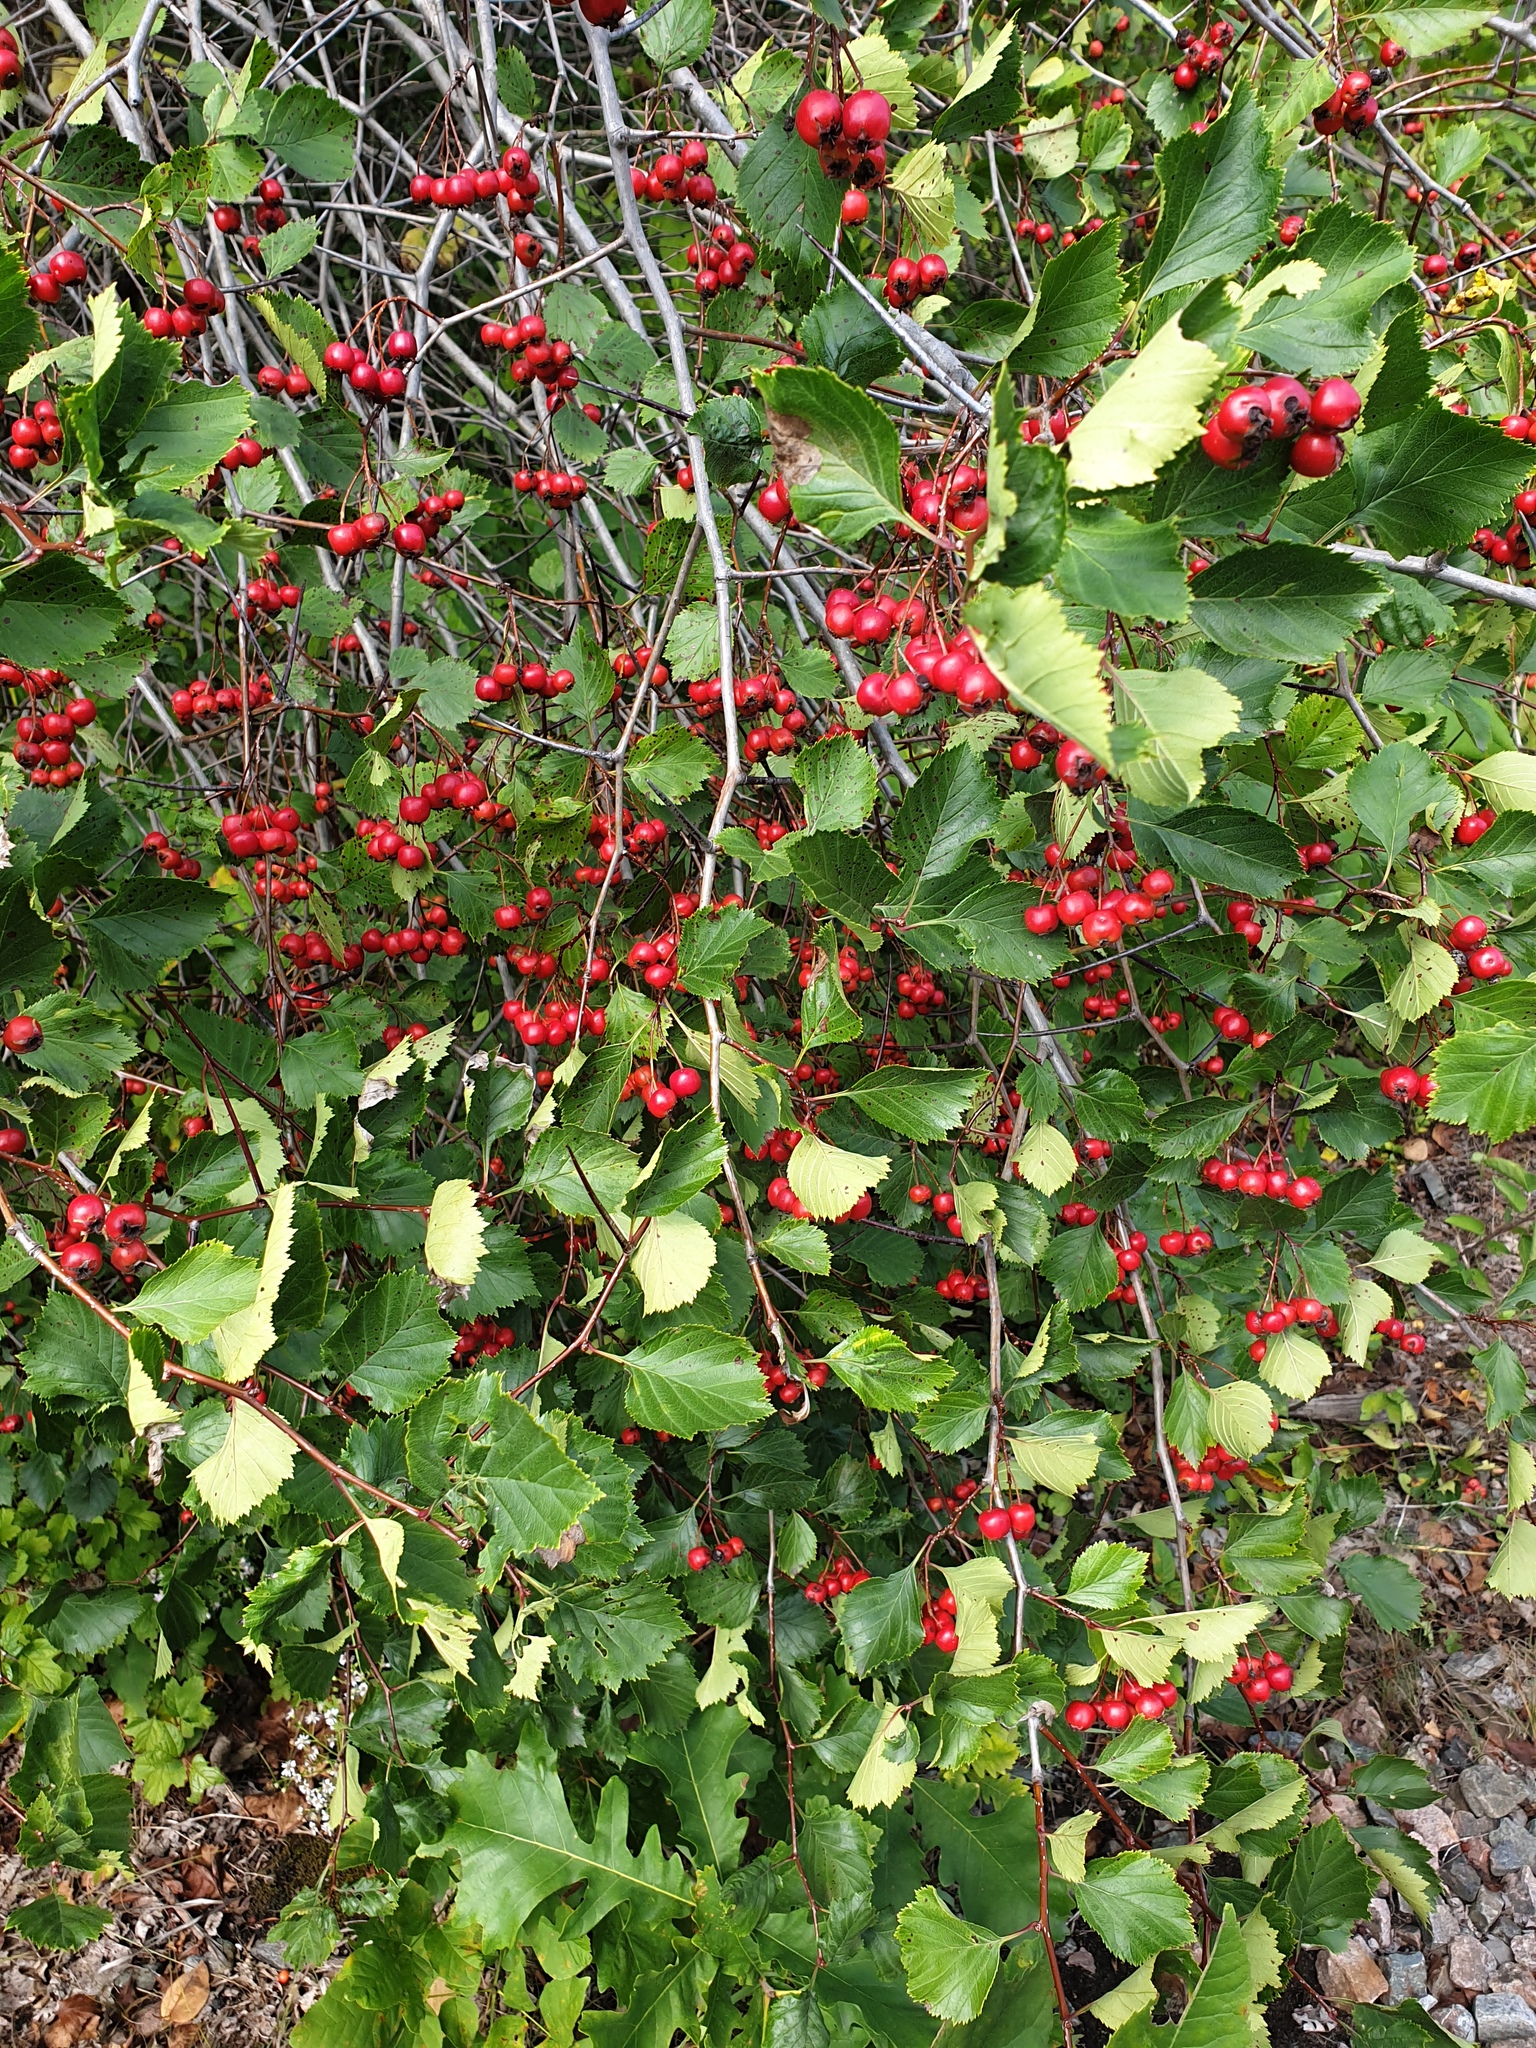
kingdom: Plantae
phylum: Tracheophyta
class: Magnoliopsida
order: Rosales
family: Rosaceae
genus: Crataegus
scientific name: Crataegus scabrida
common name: Rough hawthorn
